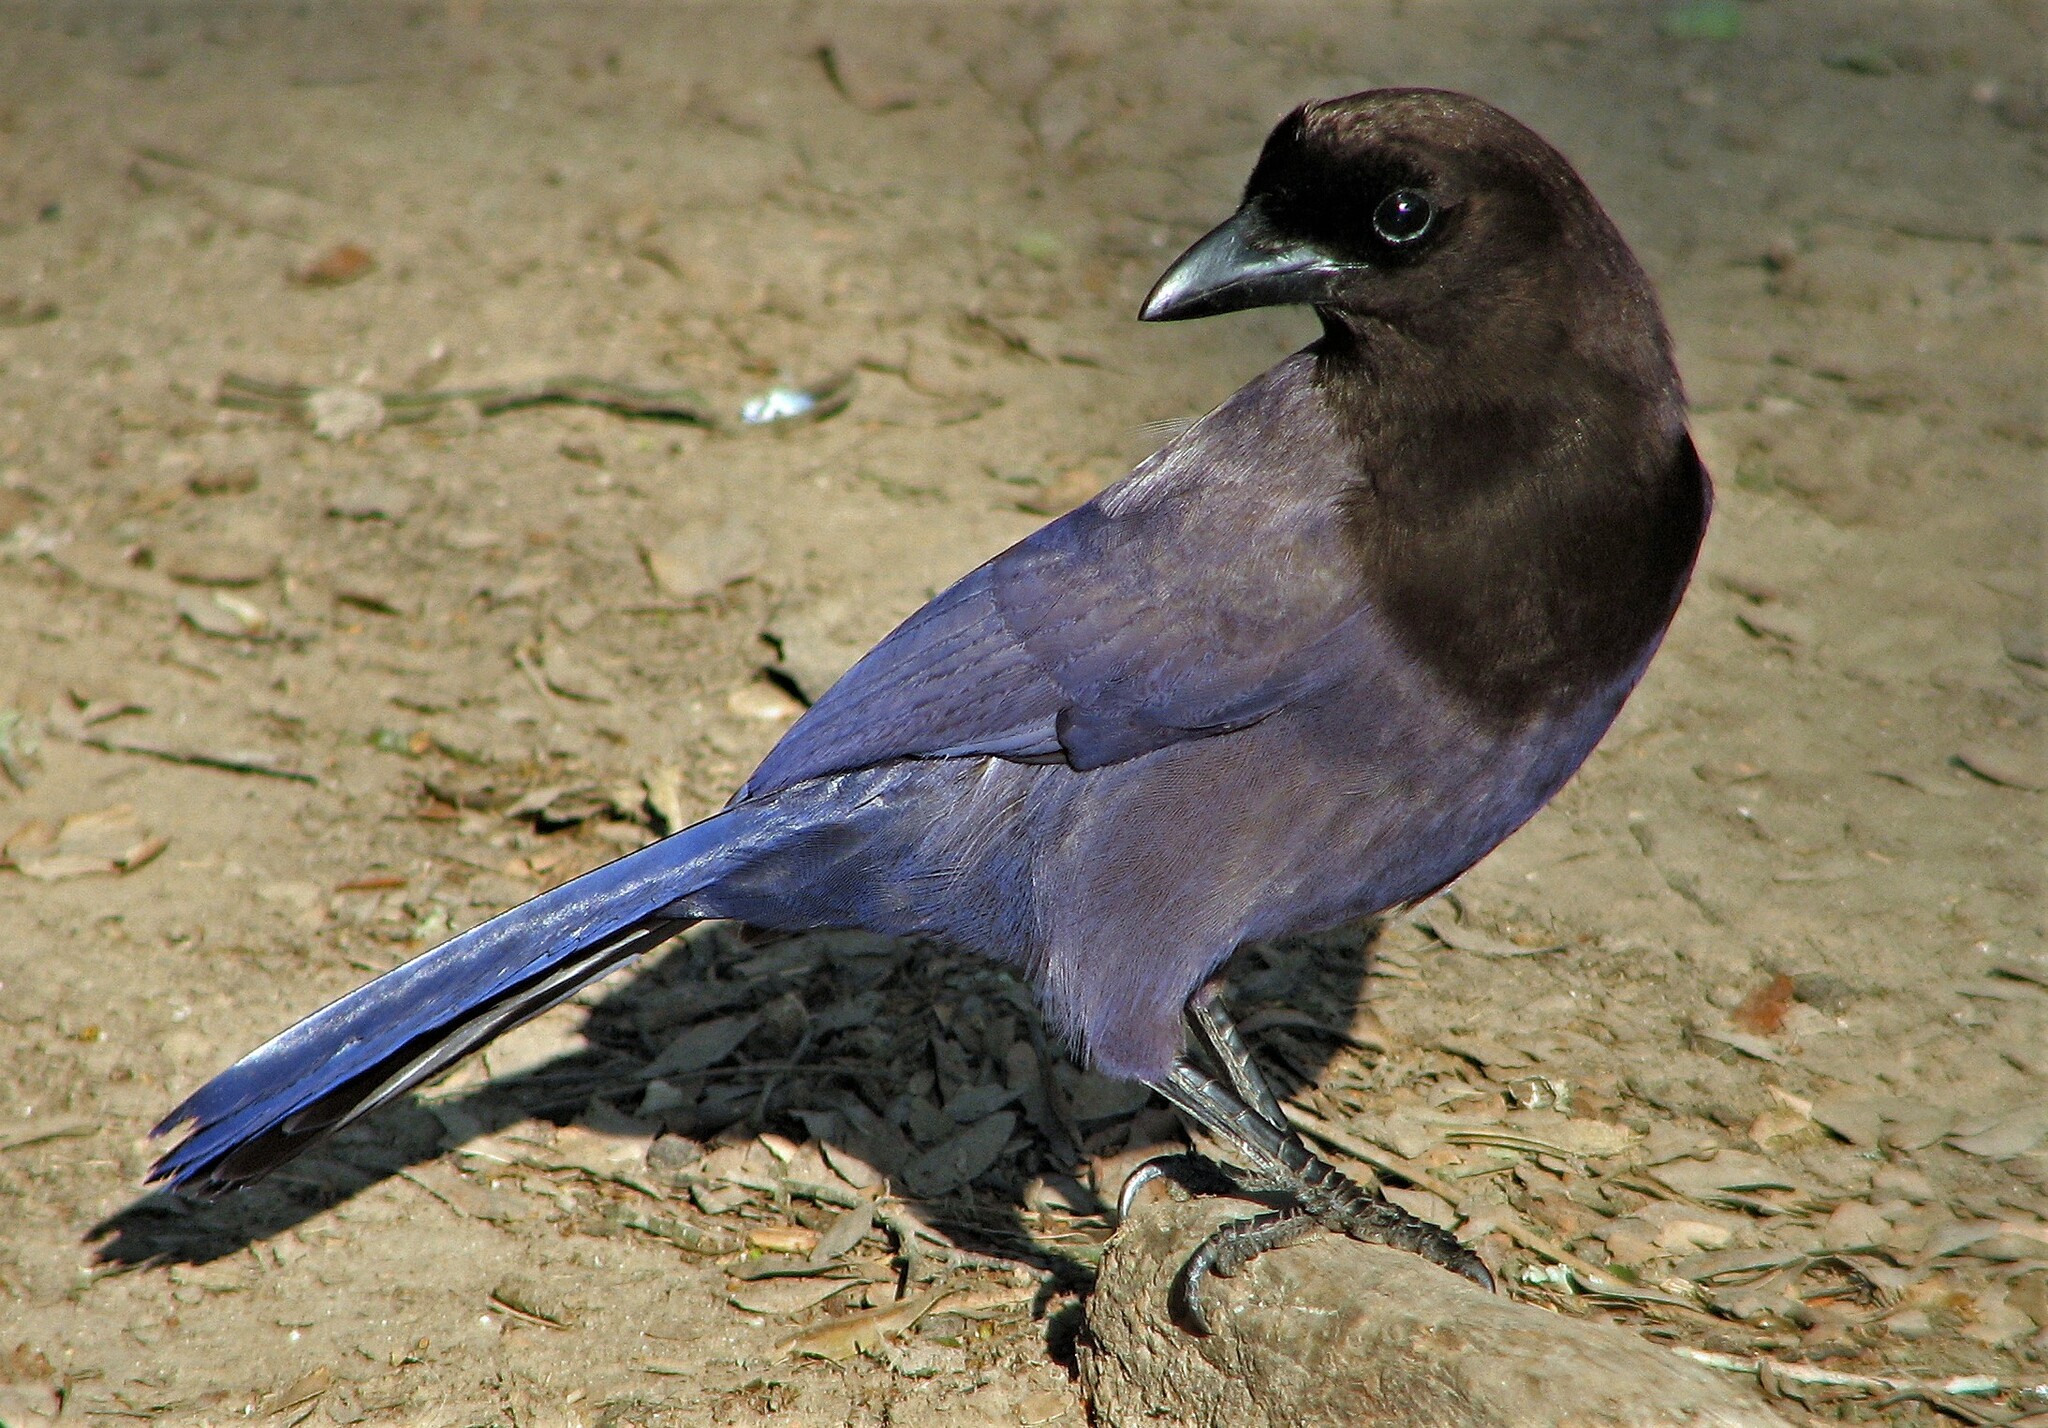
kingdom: Animalia
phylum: Chordata
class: Aves
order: Passeriformes
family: Corvidae
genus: Cyanocorax
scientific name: Cyanocorax cyanomelas
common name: Purplish jay
